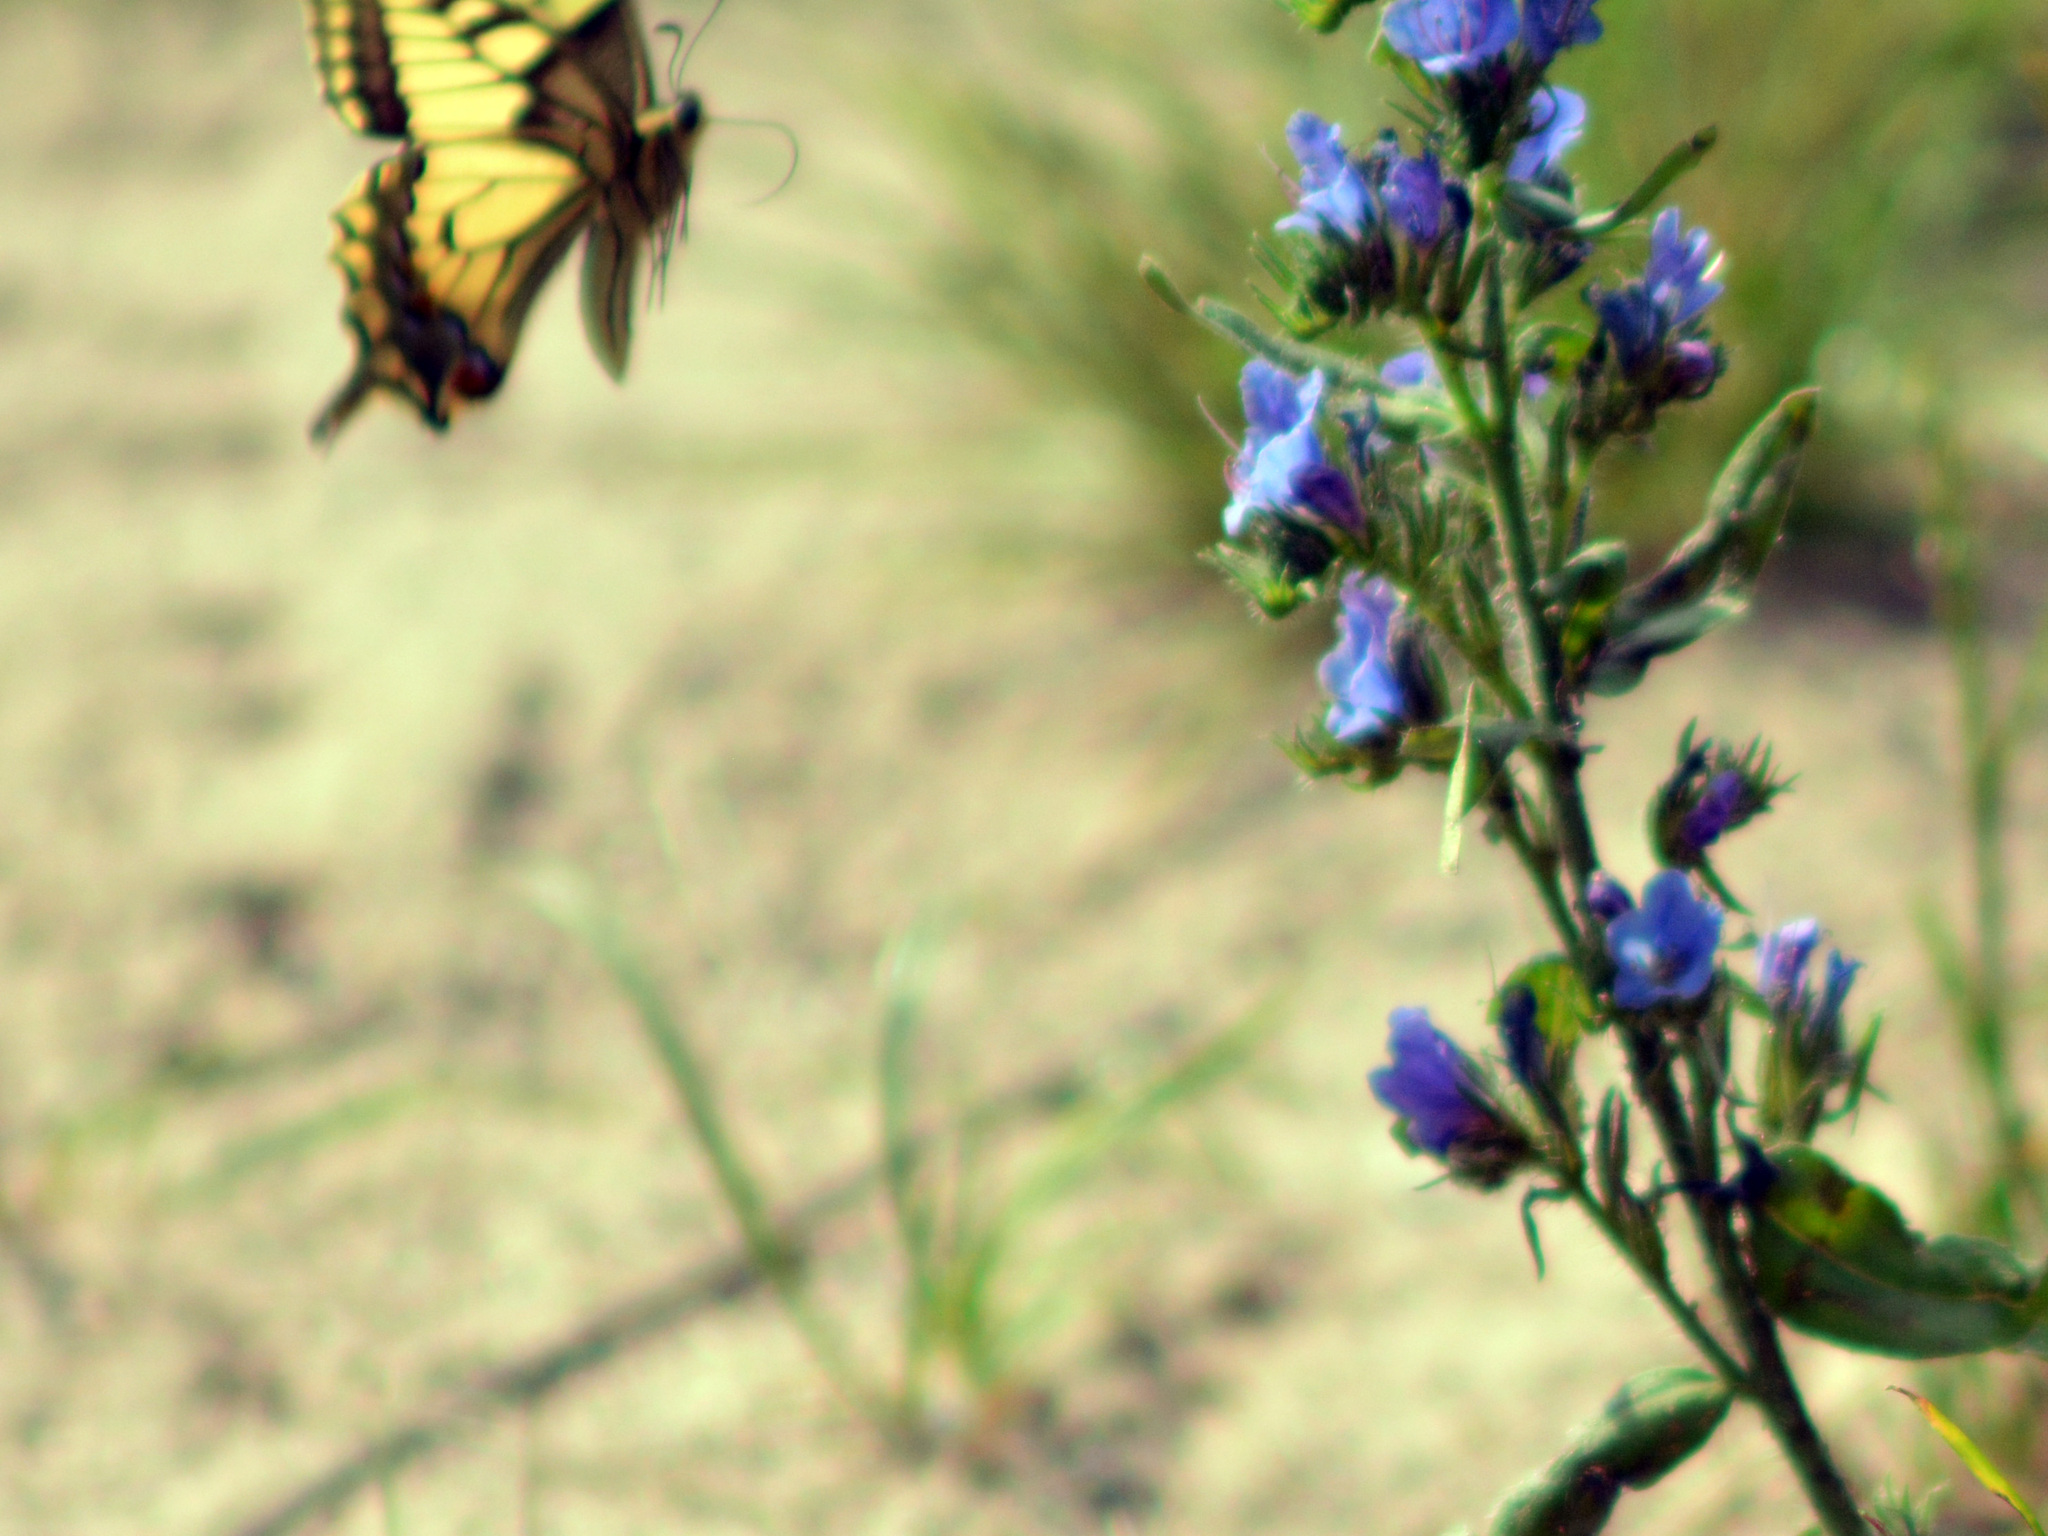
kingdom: Animalia
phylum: Arthropoda
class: Insecta
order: Lepidoptera
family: Papilionidae
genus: Papilio
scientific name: Papilio machaon
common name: Swallowtail
